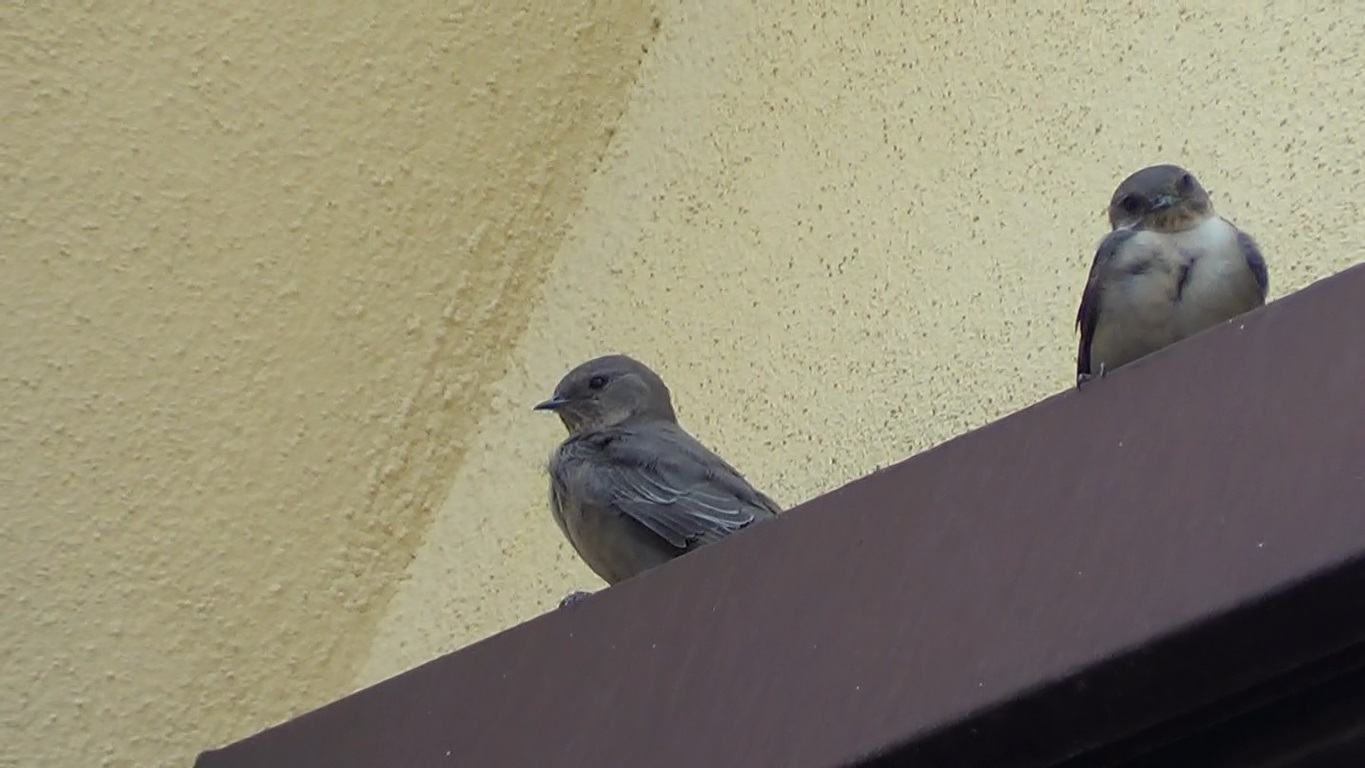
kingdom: Animalia
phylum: Chordata
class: Aves
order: Passeriformes
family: Hirundinidae
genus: Ptyonoprogne
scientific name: Ptyonoprogne rupestris
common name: Eurasian crag martin
